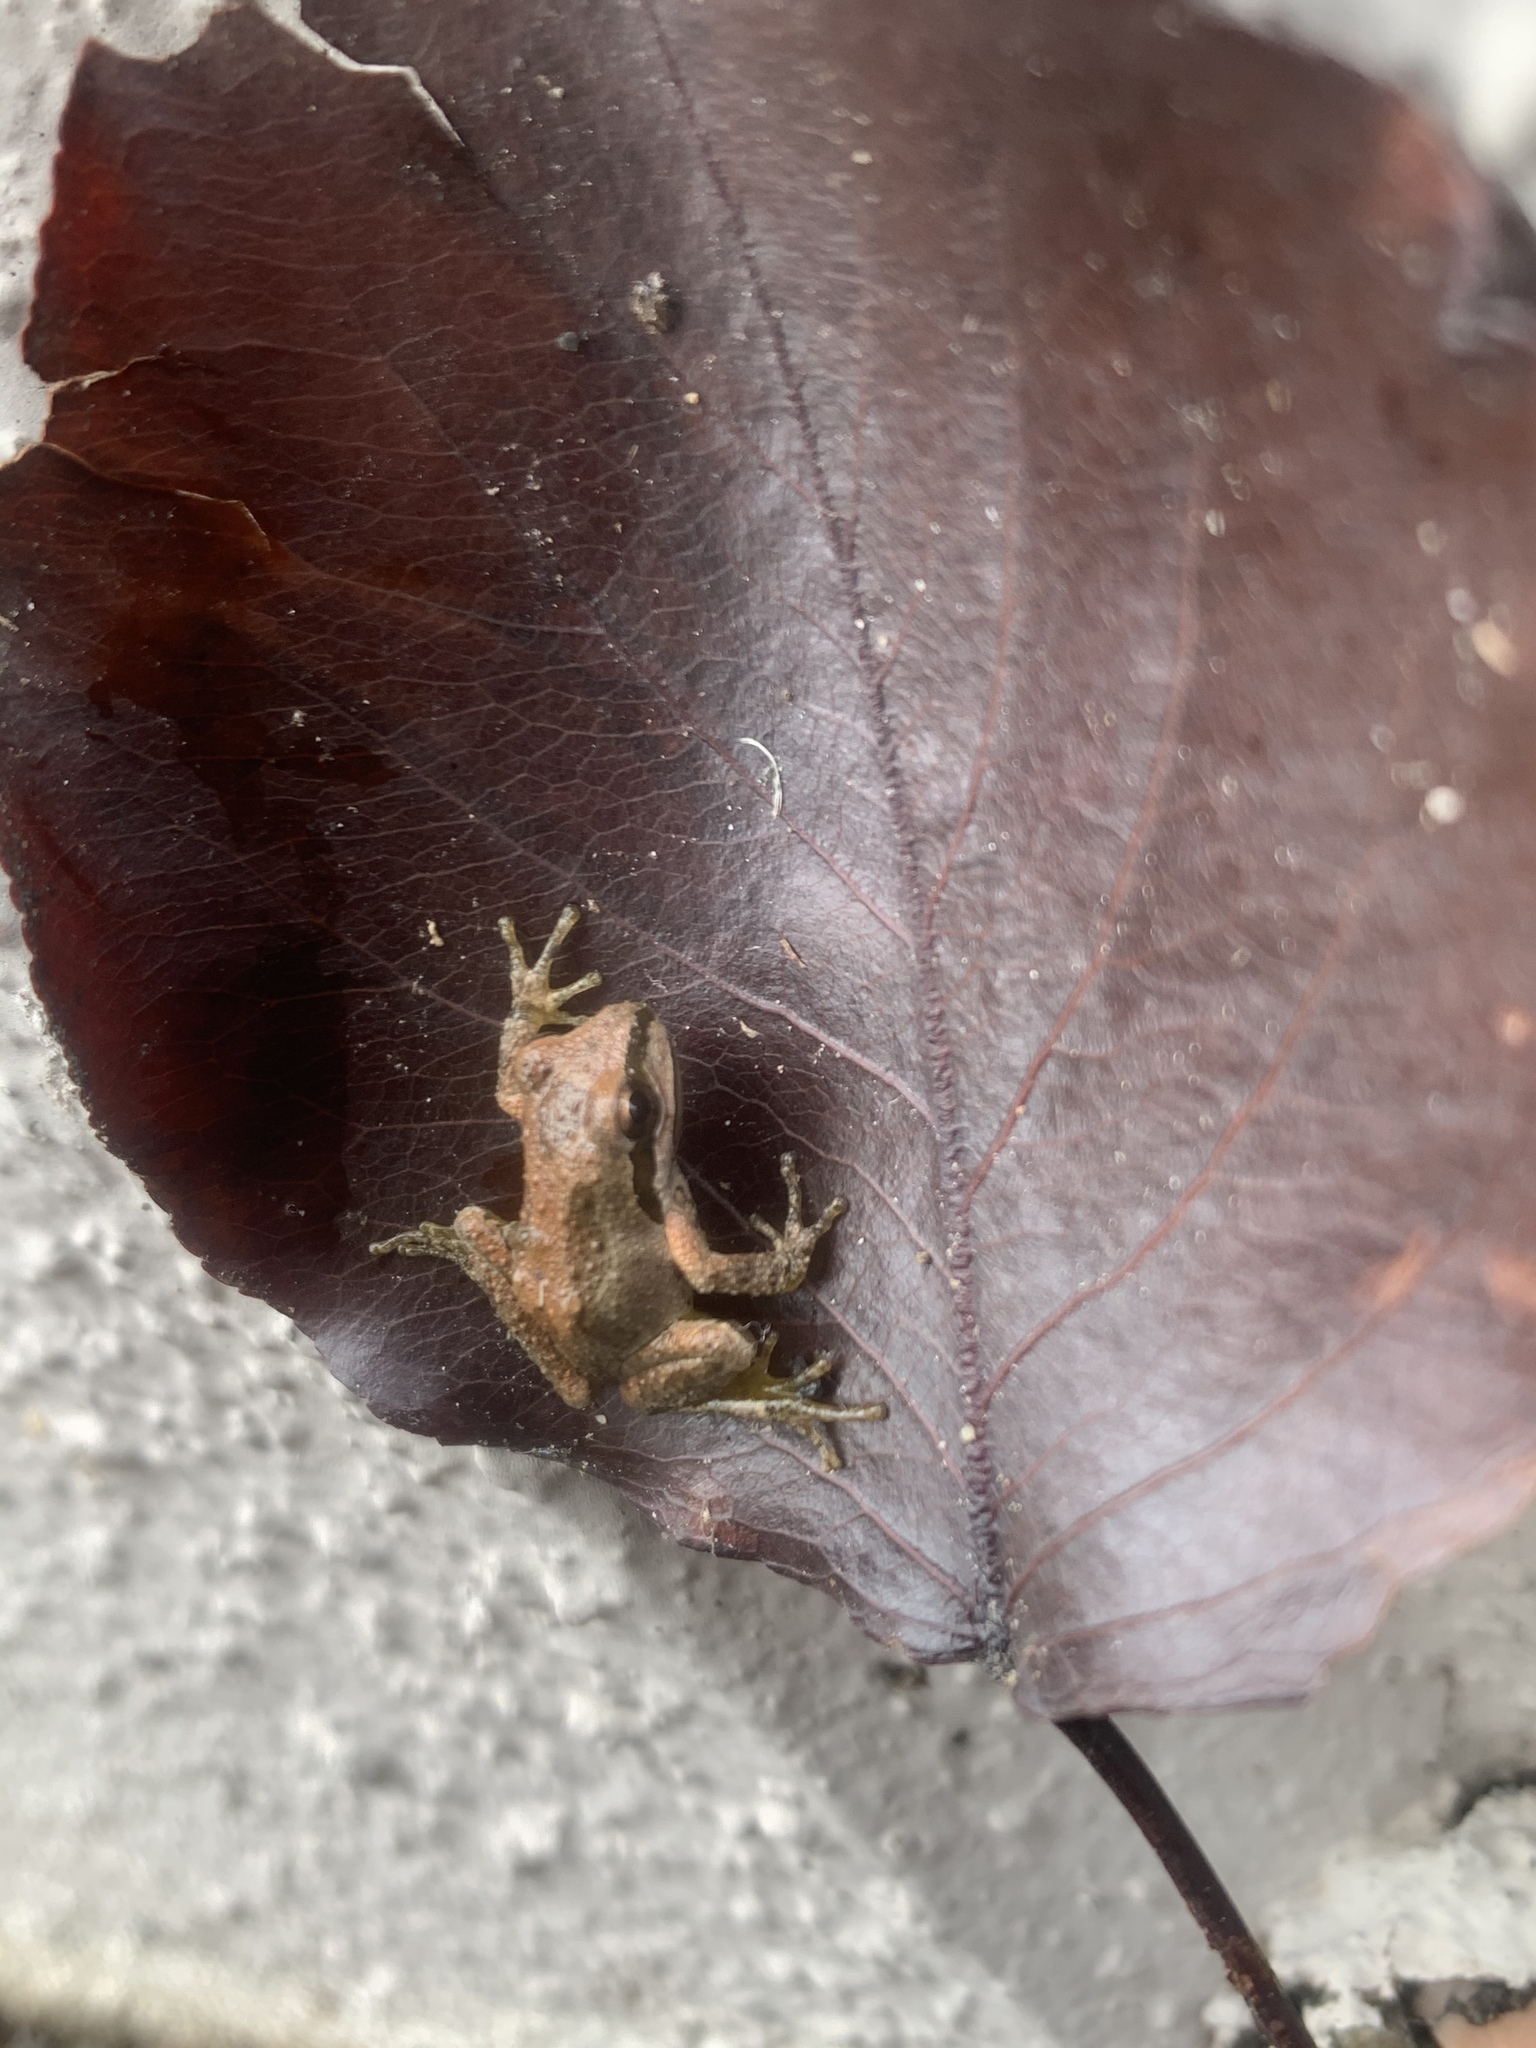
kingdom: Animalia
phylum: Chordata
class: Amphibia
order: Anura
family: Hylidae
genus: Pseudacris
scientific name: Pseudacris regilla
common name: Pacific chorus frog
